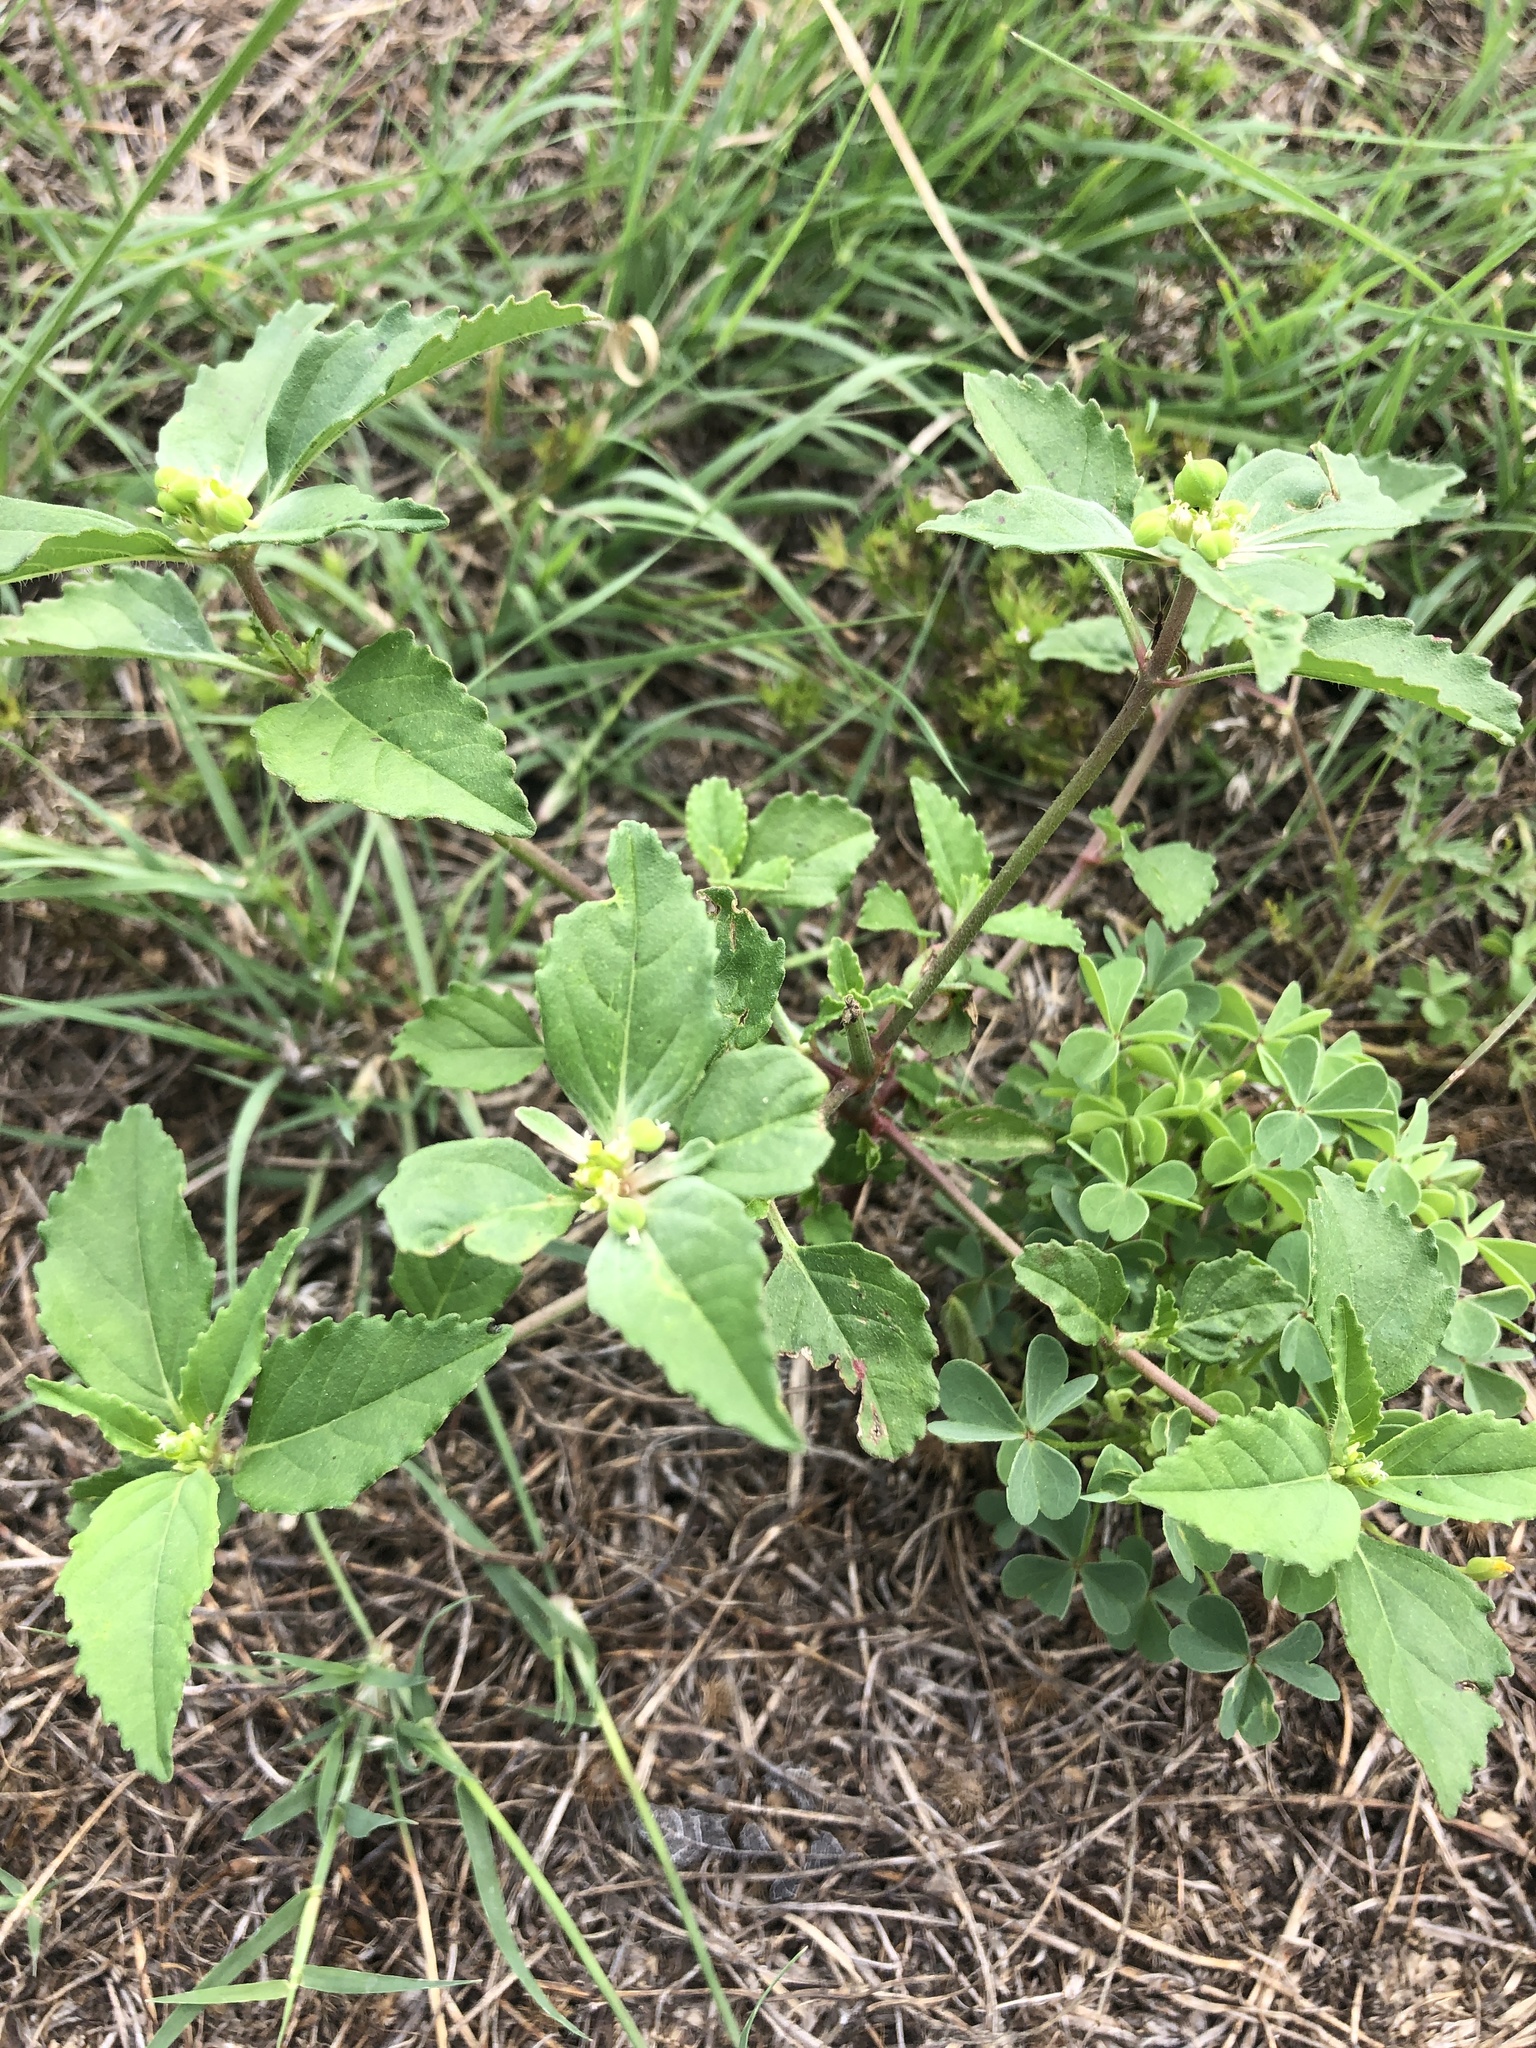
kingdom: Plantae
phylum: Tracheophyta
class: Magnoliopsida
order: Malpighiales
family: Euphorbiaceae
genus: Euphorbia
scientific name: Euphorbia dentata
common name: Dentate spurge
